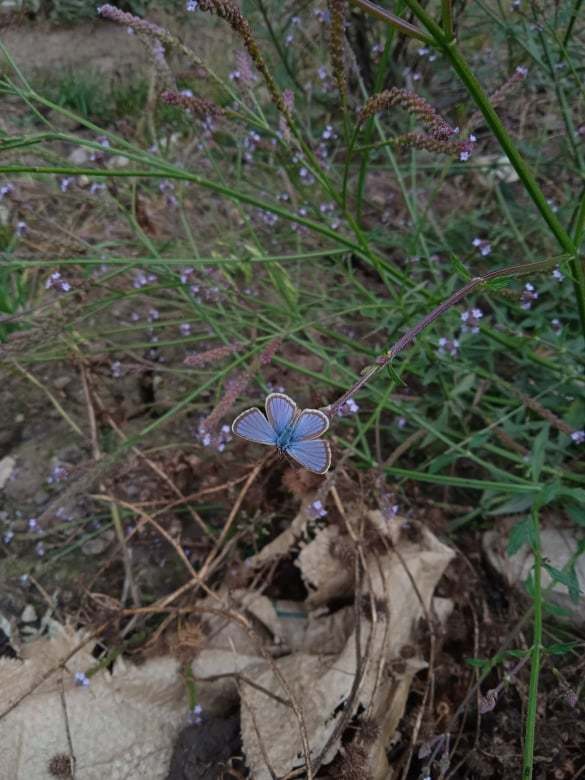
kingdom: Animalia
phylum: Arthropoda
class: Insecta
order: Lepidoptera
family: Lycaenidae
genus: Hemiargus
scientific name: Hemiargus hanno
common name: Common blue
